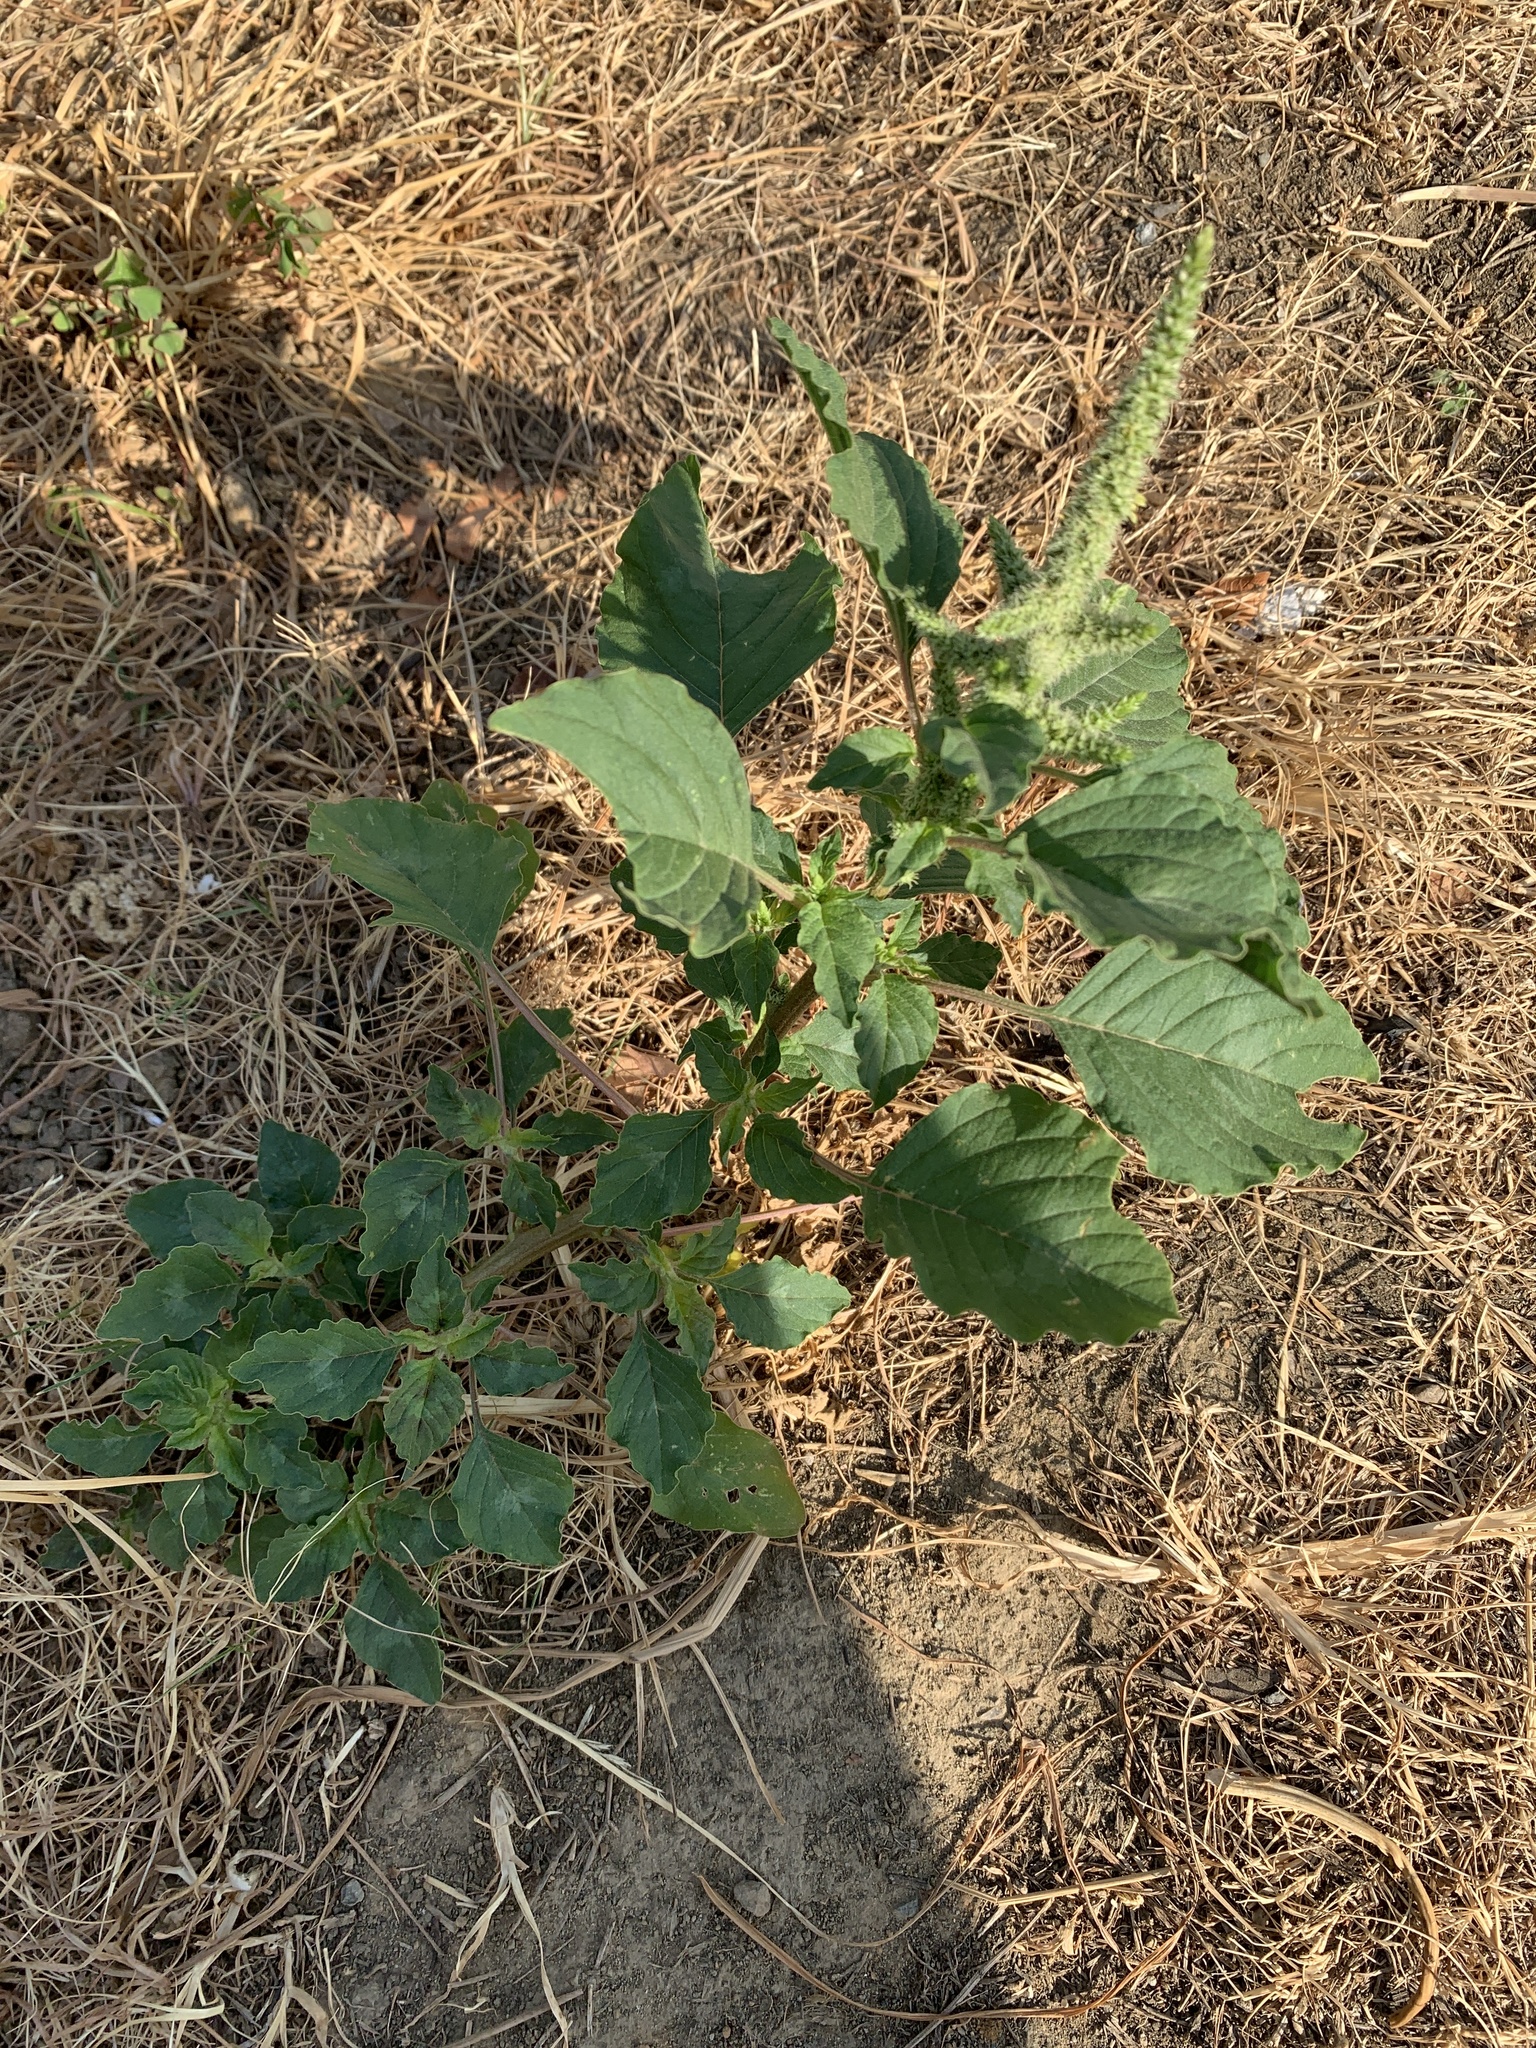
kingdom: Plantae
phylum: Tracheophyta
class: Magnoliopsida
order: Caryophyllales
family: Amaranthaceae
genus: Amaranthus
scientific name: Amaranthus viridis
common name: Slender amaranth
